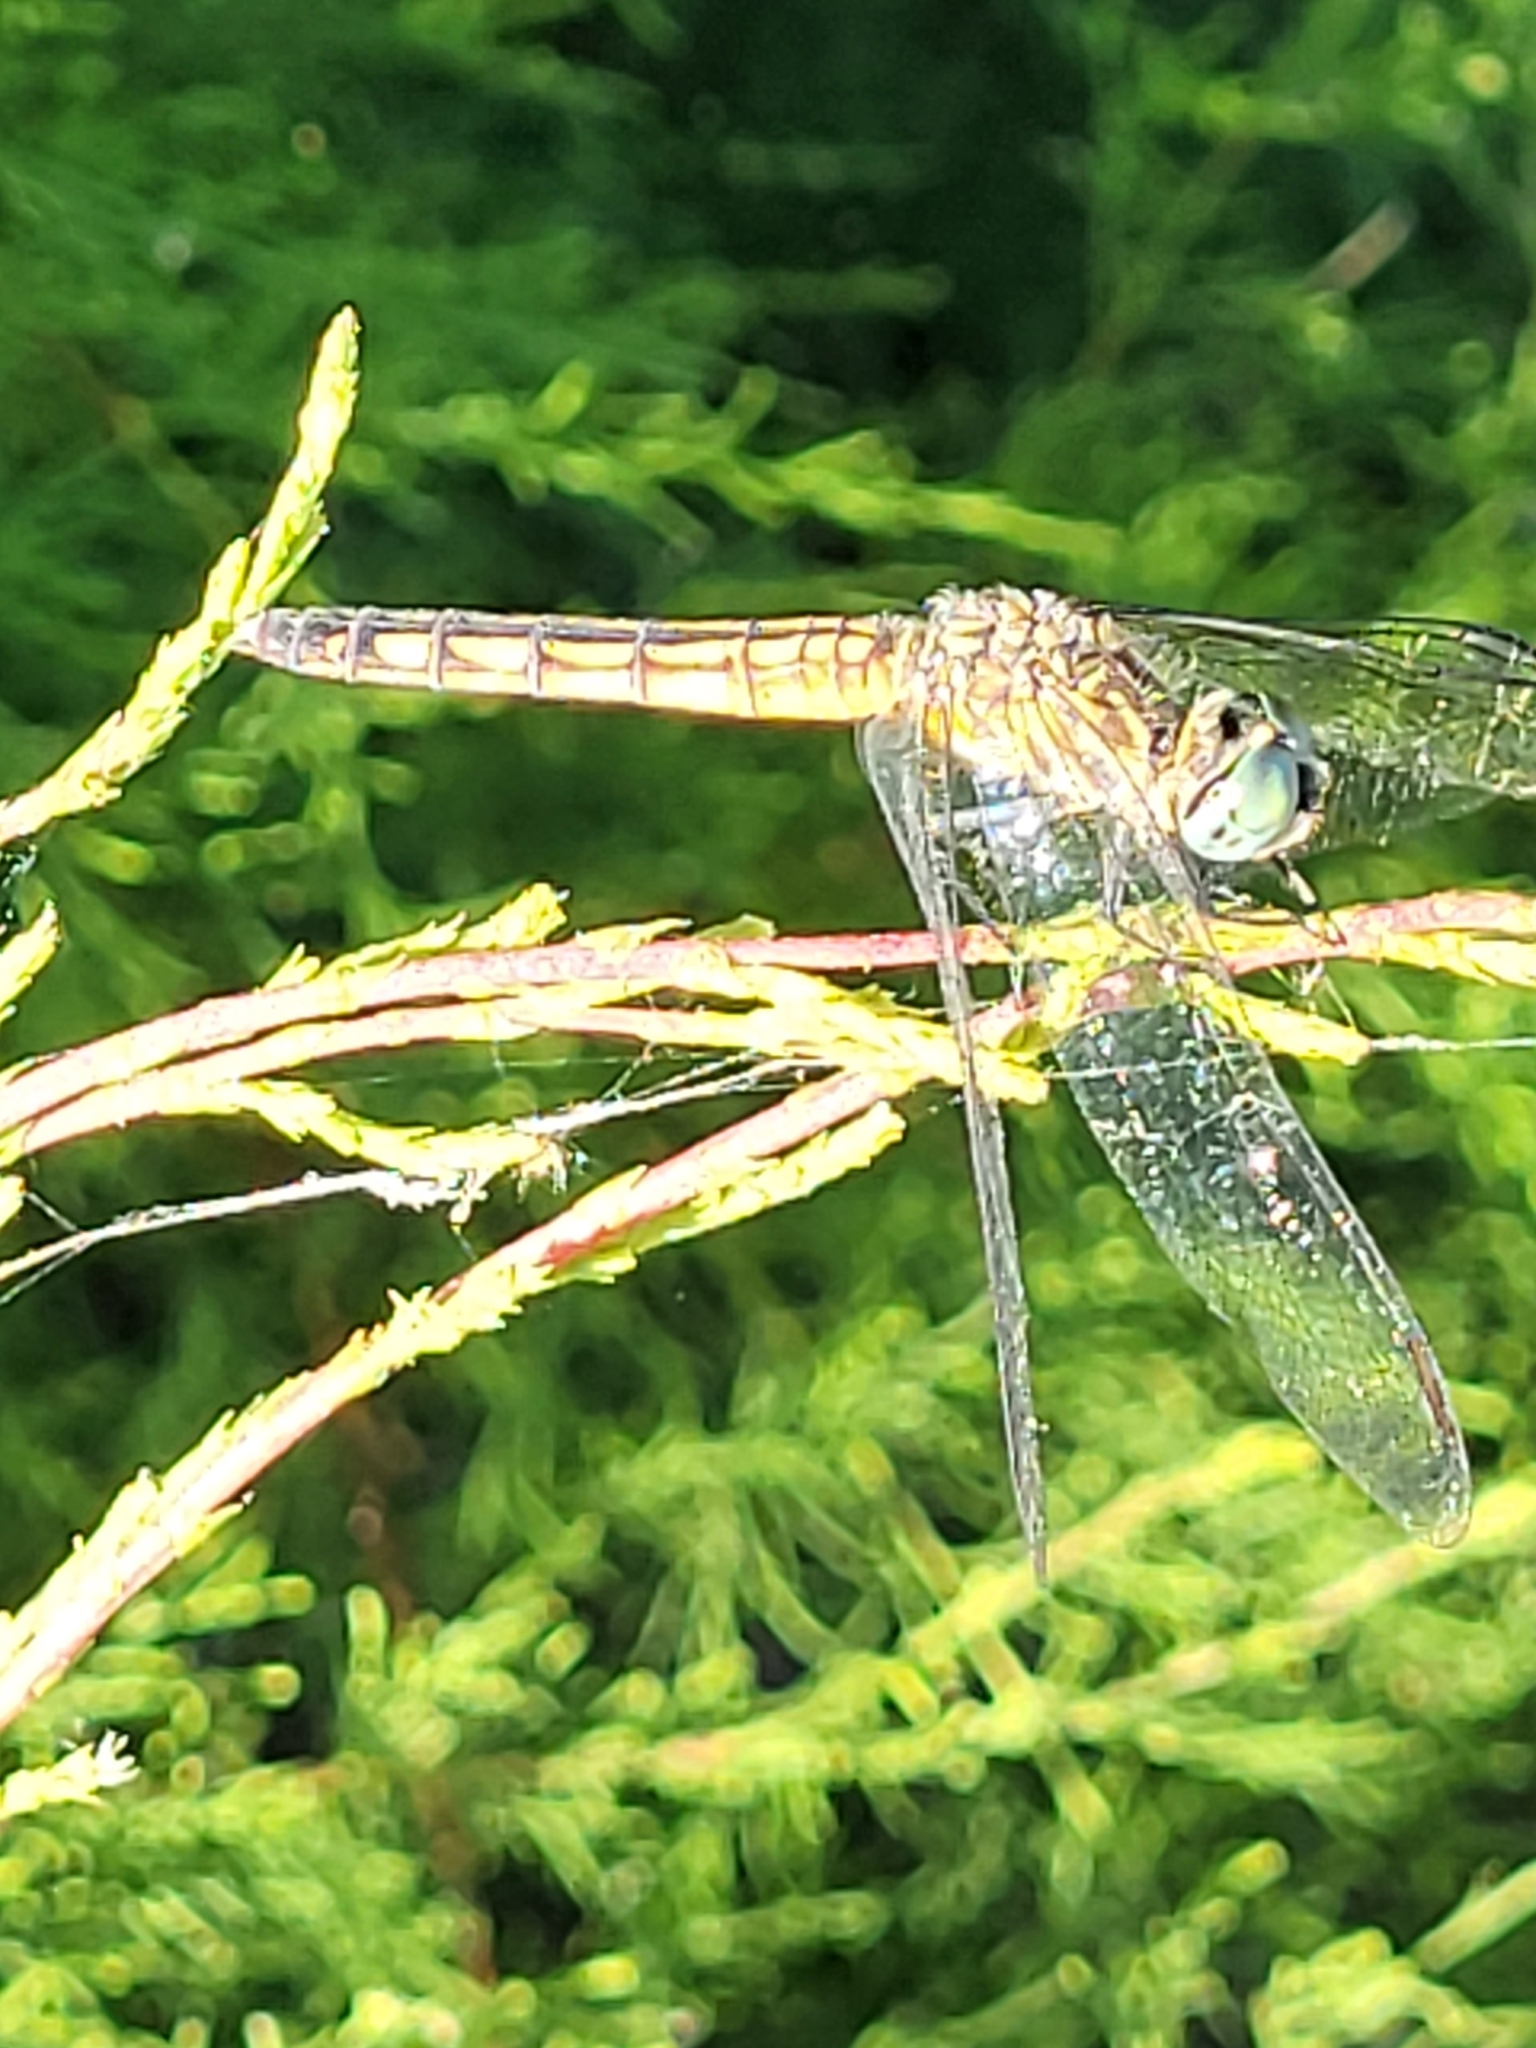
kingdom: Animalia
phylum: Arthropoda
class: Insecta
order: Odonata
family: Libellulidae
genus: Pachydiplax
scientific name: Pachydiplax longipennis
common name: Blue dasher
